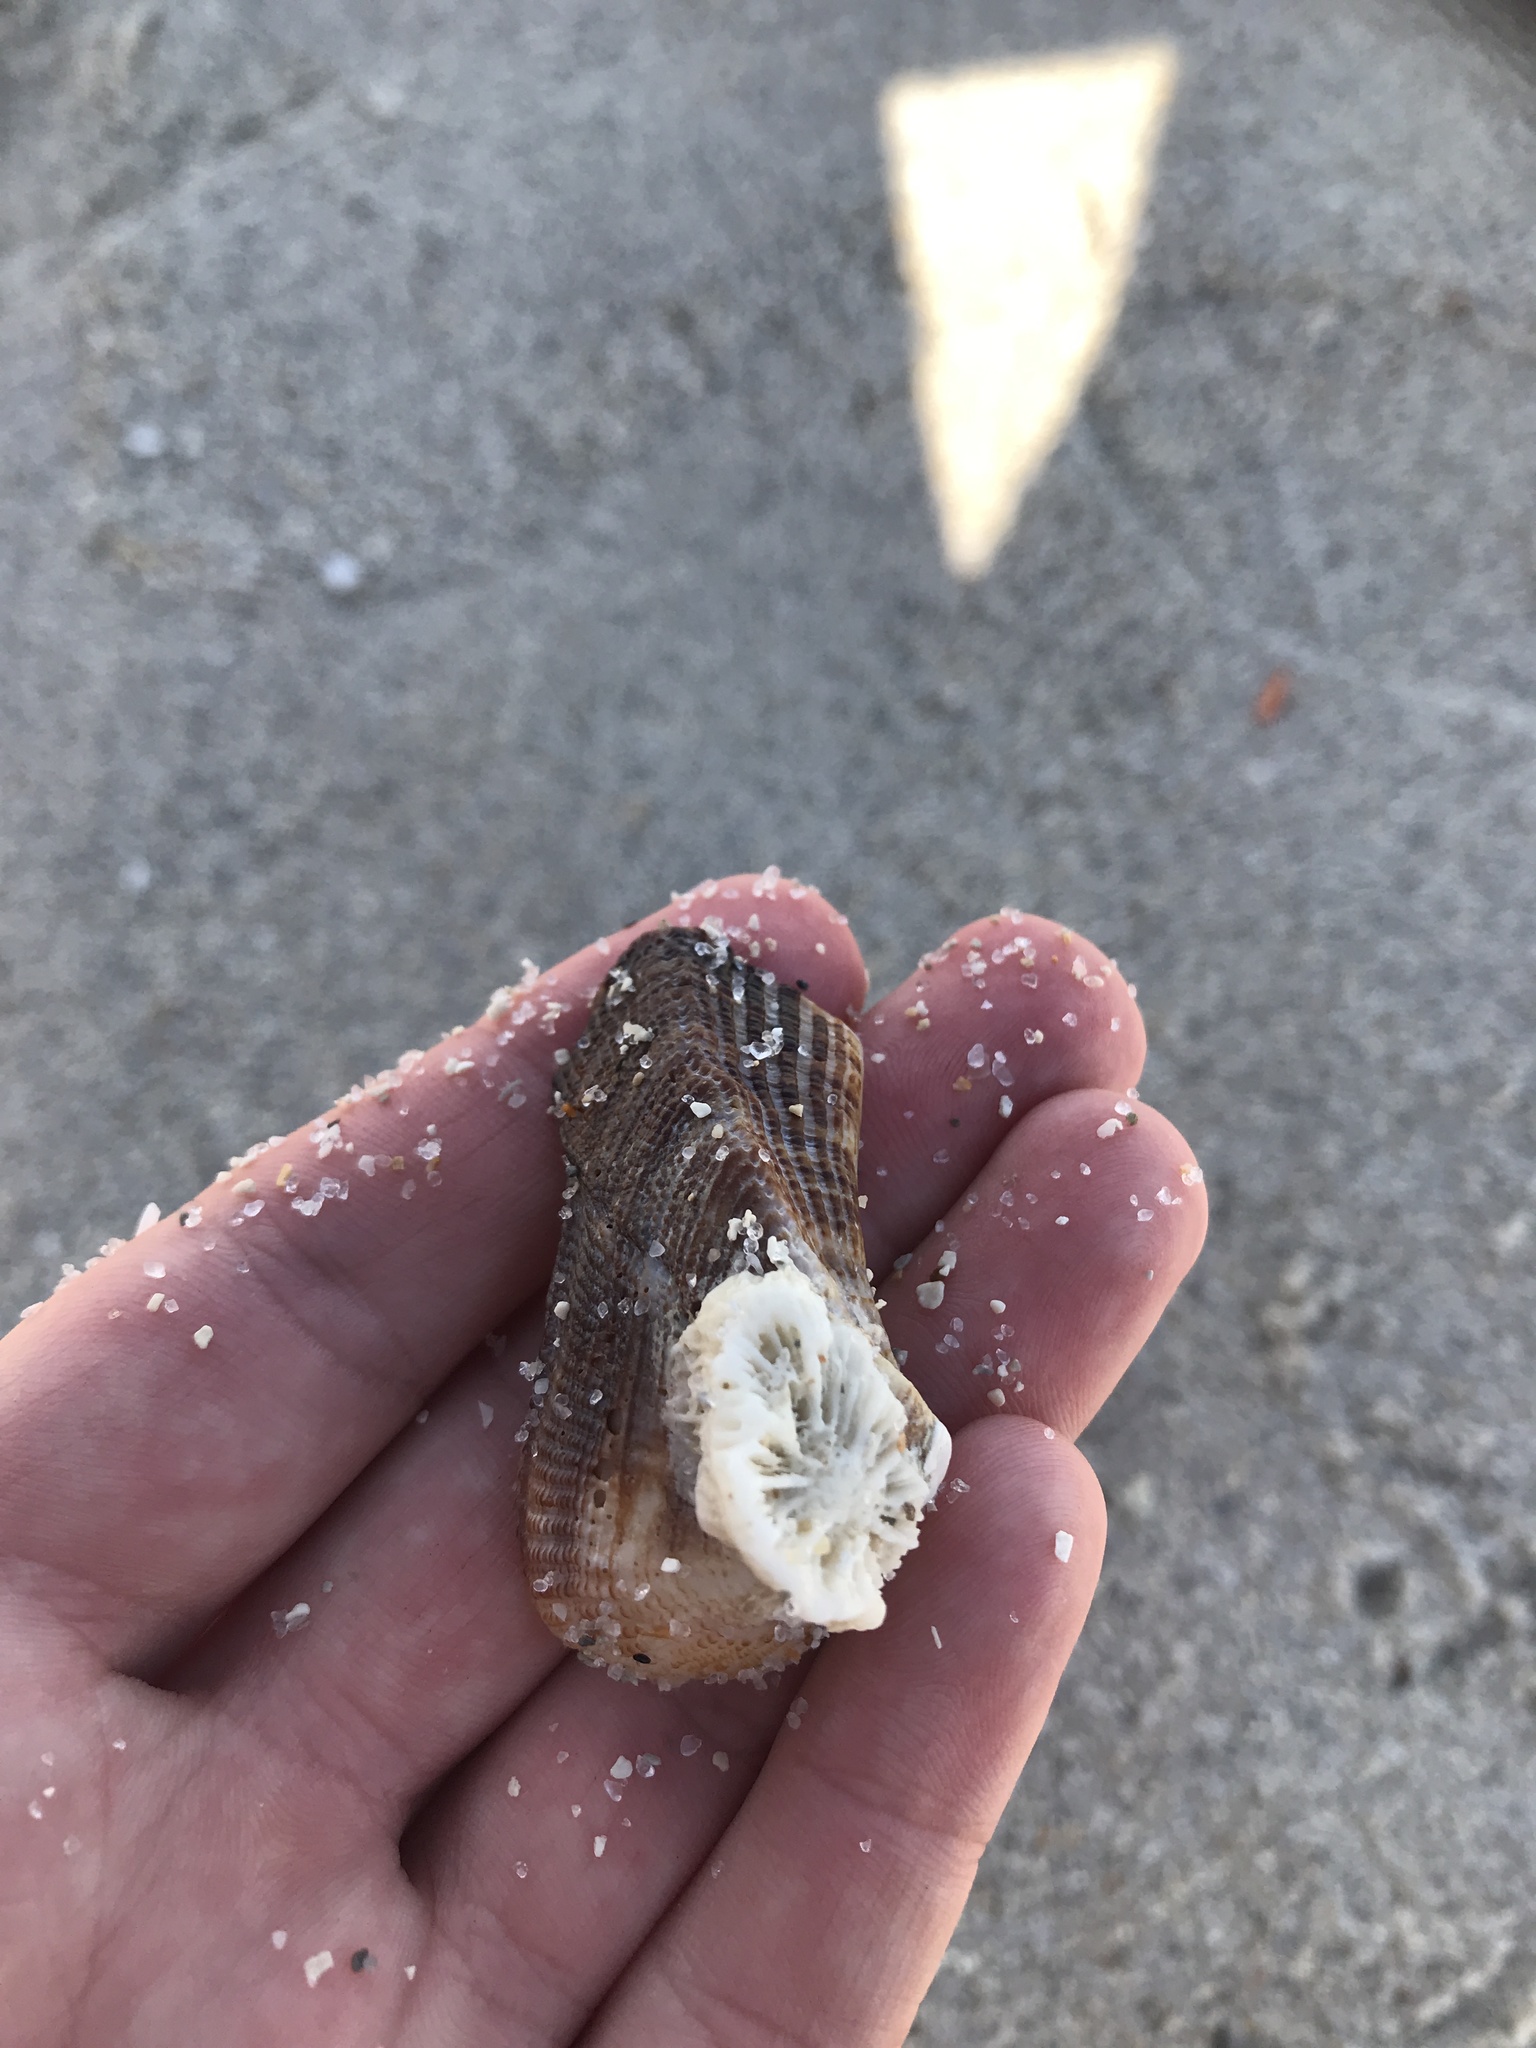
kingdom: Animalia
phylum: Mollusca
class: Bivalvia
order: Arcida
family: Arcidae
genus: Lamarcka
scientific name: Lamarcka imbricata
